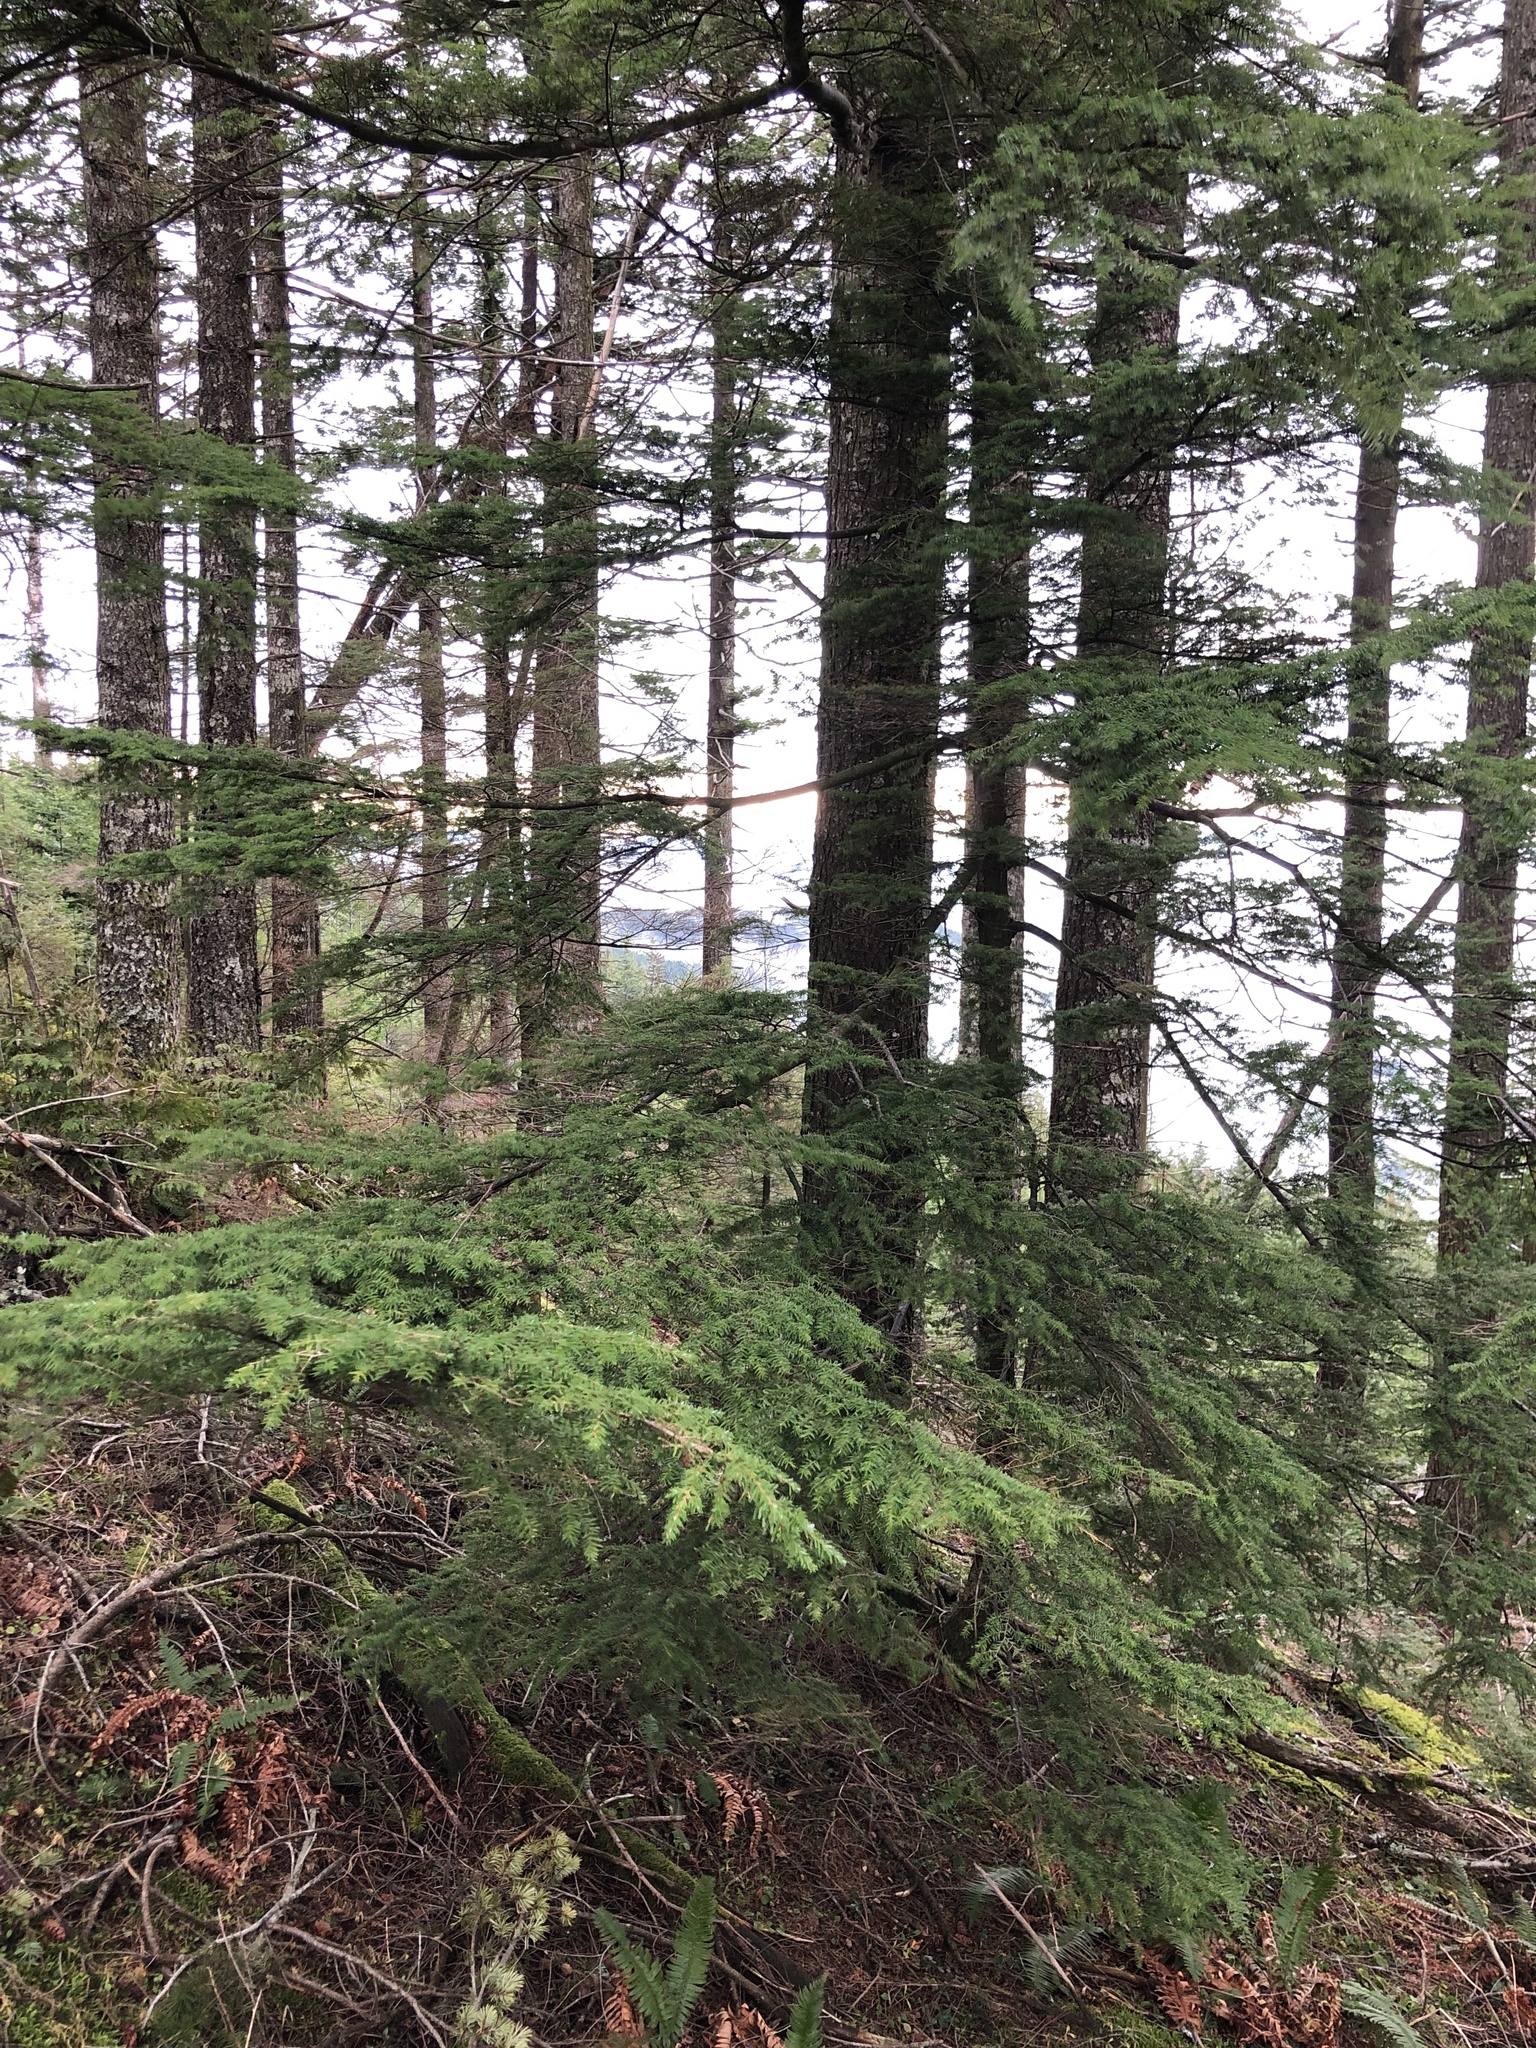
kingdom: Plantae
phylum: Tracheophyta
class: Pinopsida
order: Pinales
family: Pinaceae
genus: Tsuga
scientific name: Tsuga heterophylla
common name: Western hemlock
